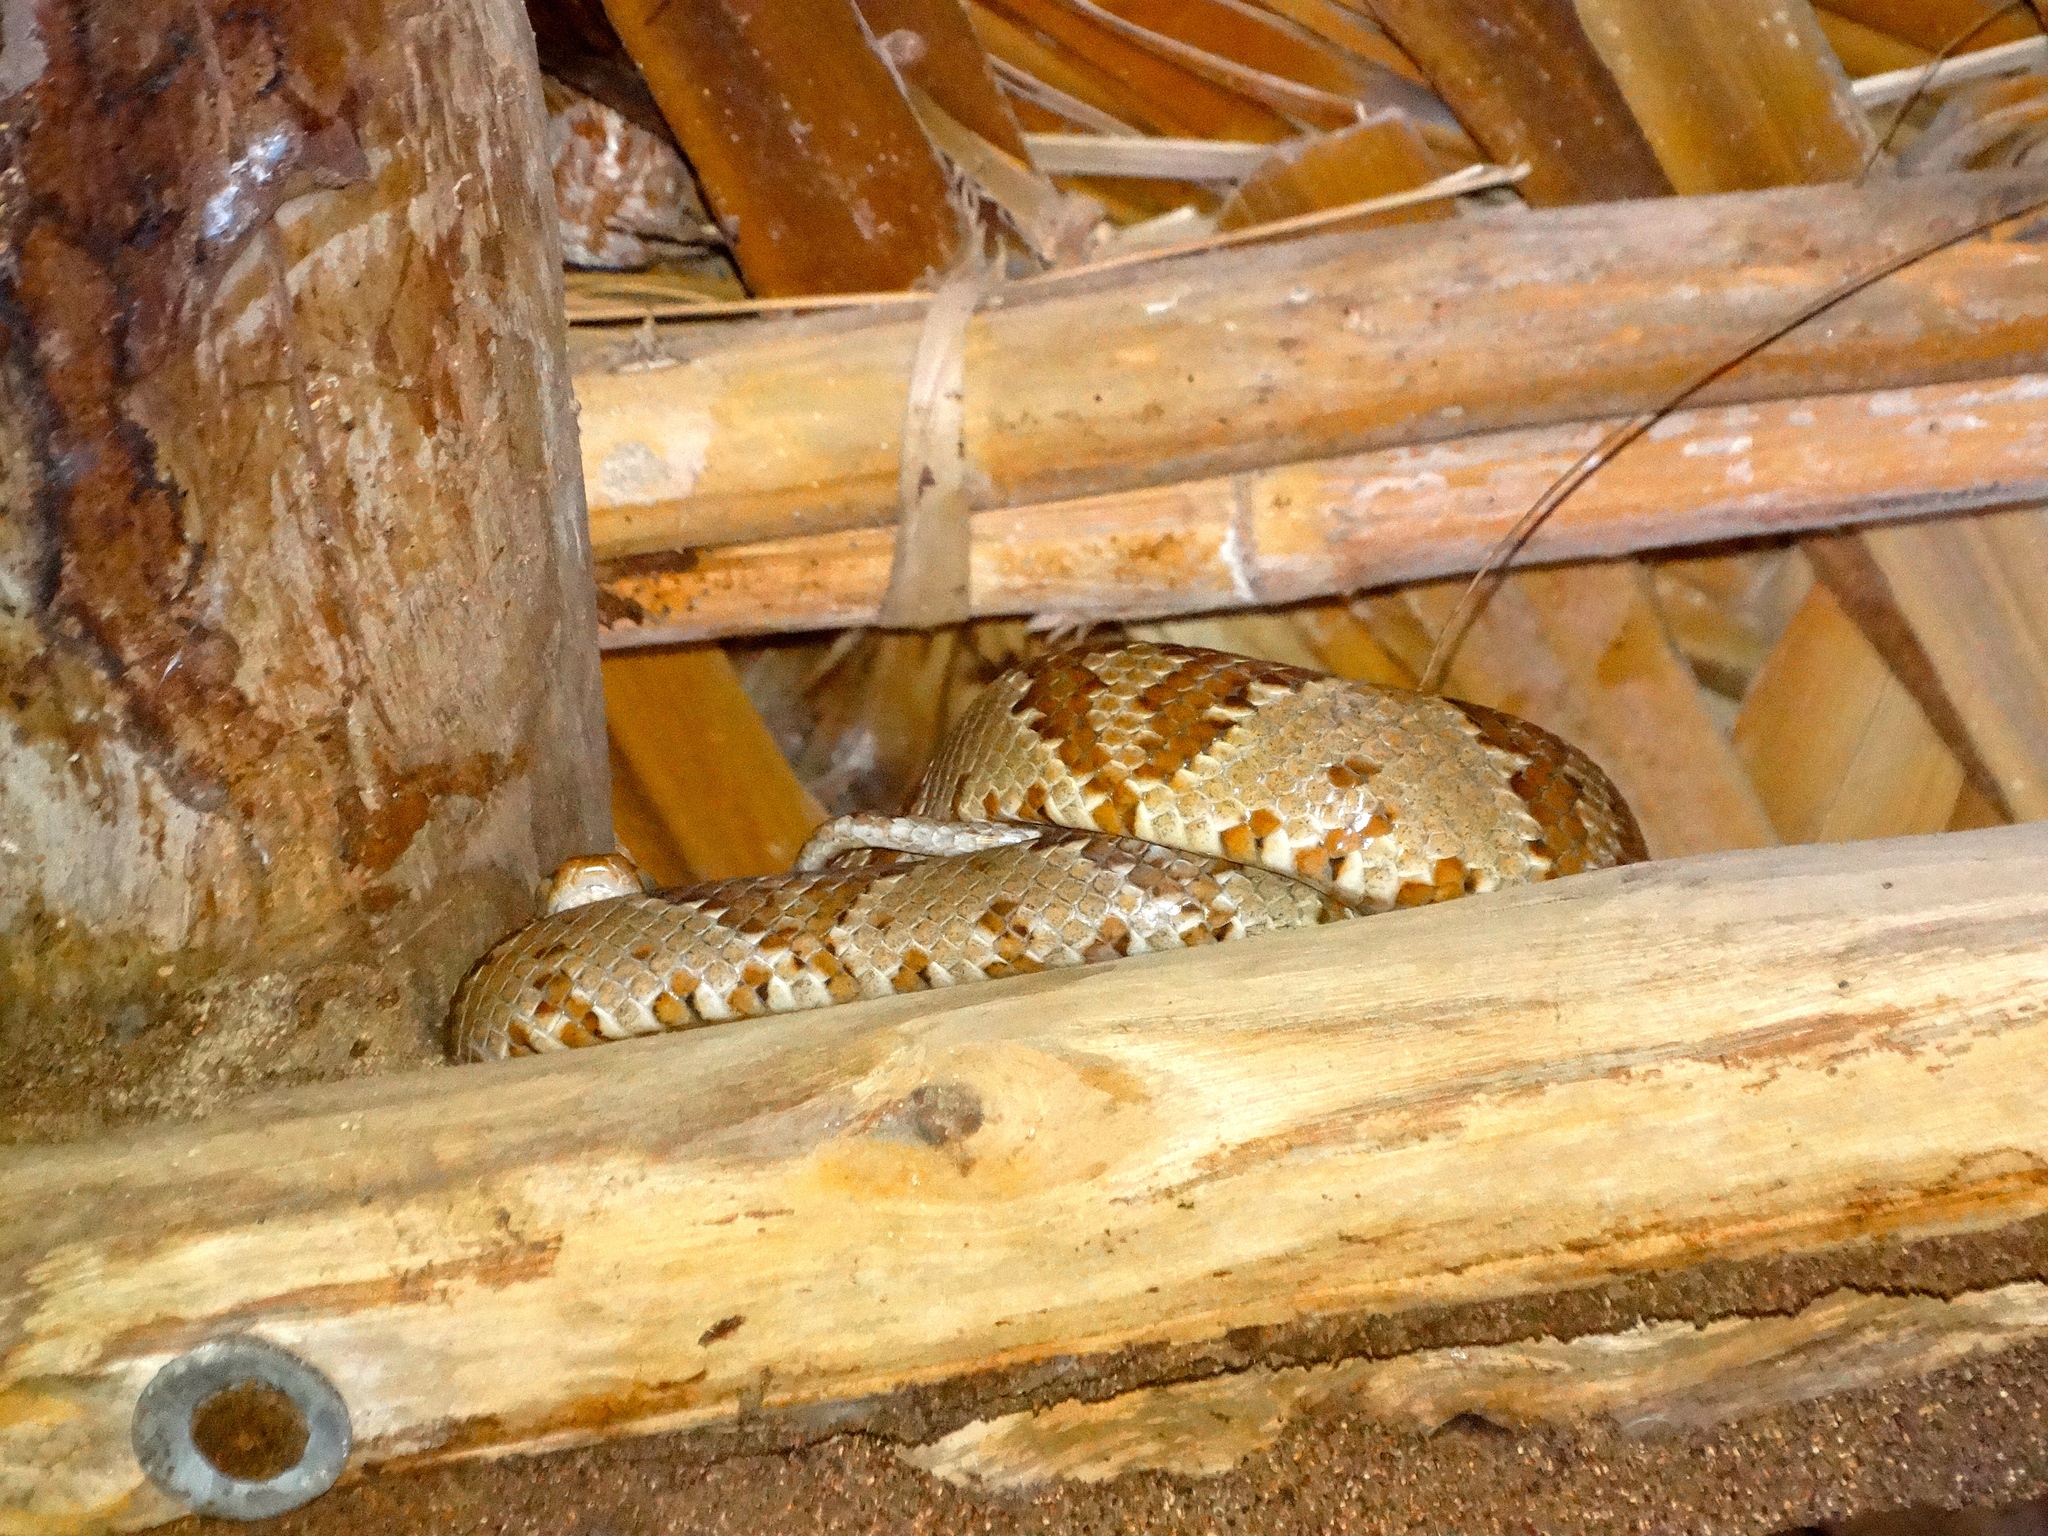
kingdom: Animalia
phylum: Chordata
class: Squamata
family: Colubridae
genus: Trimorphodon
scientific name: Trimorphodon paucimaculatus
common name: Sinaloan lyresnake
